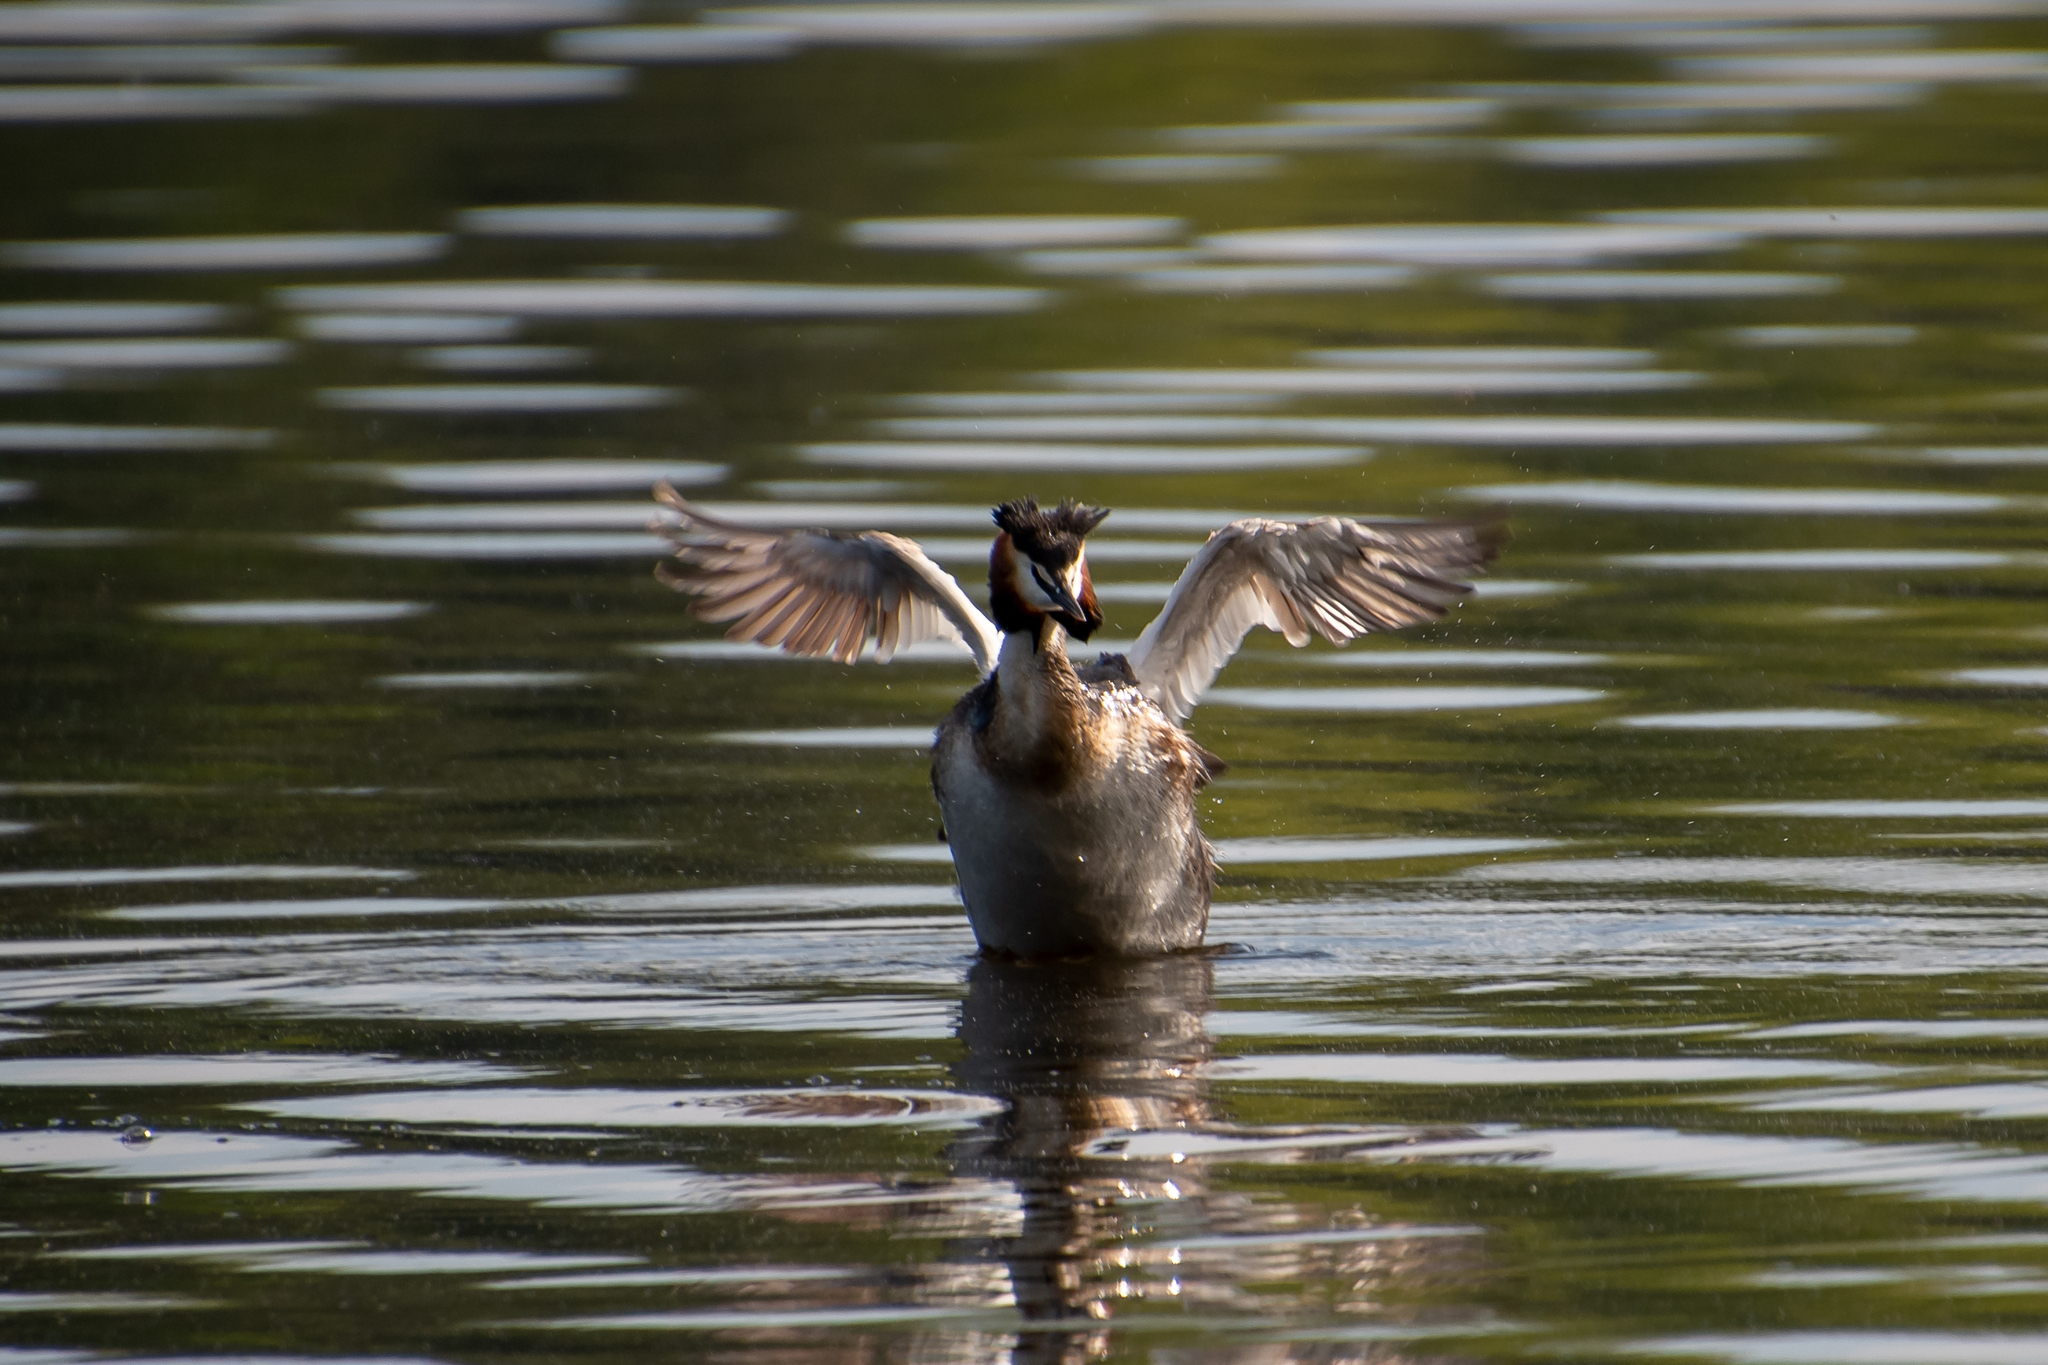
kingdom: Animalia
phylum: Chordata
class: Aves
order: Podicipediformes
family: Podicipedidae
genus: Podiceps
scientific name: Podiceps cristatus
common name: Great crested grebe
